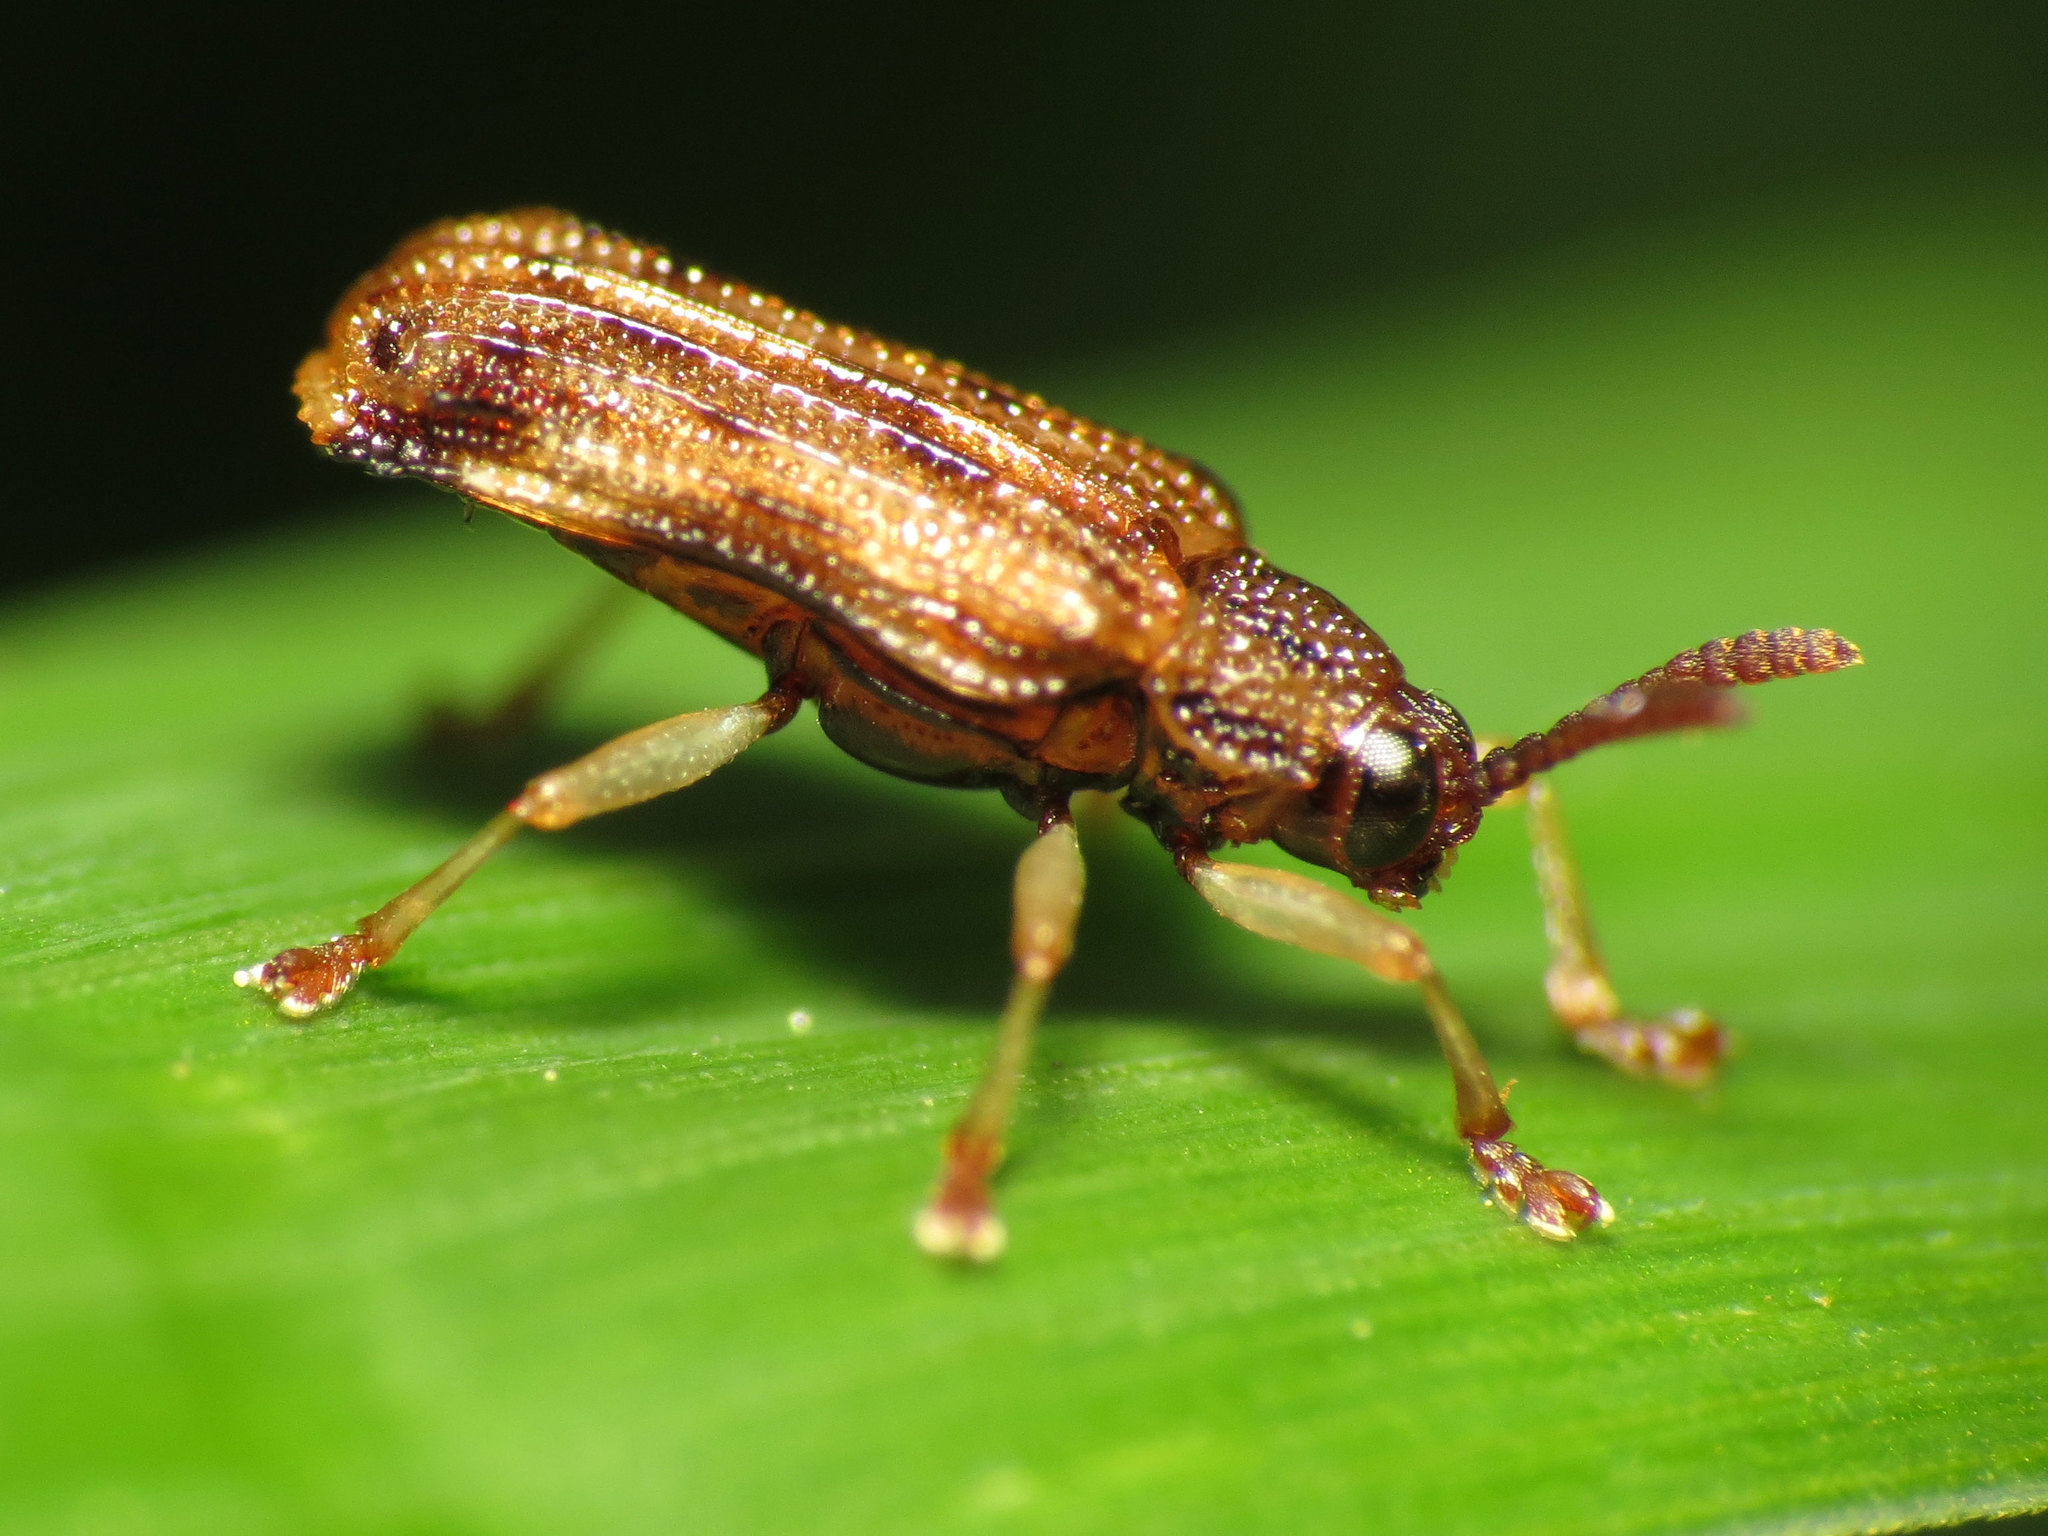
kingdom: Animalia
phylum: Arthropoda
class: Insecta
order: Coleoptera
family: Chrysomelidae
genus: Sumitrosis
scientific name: Sumitrosis rosea
